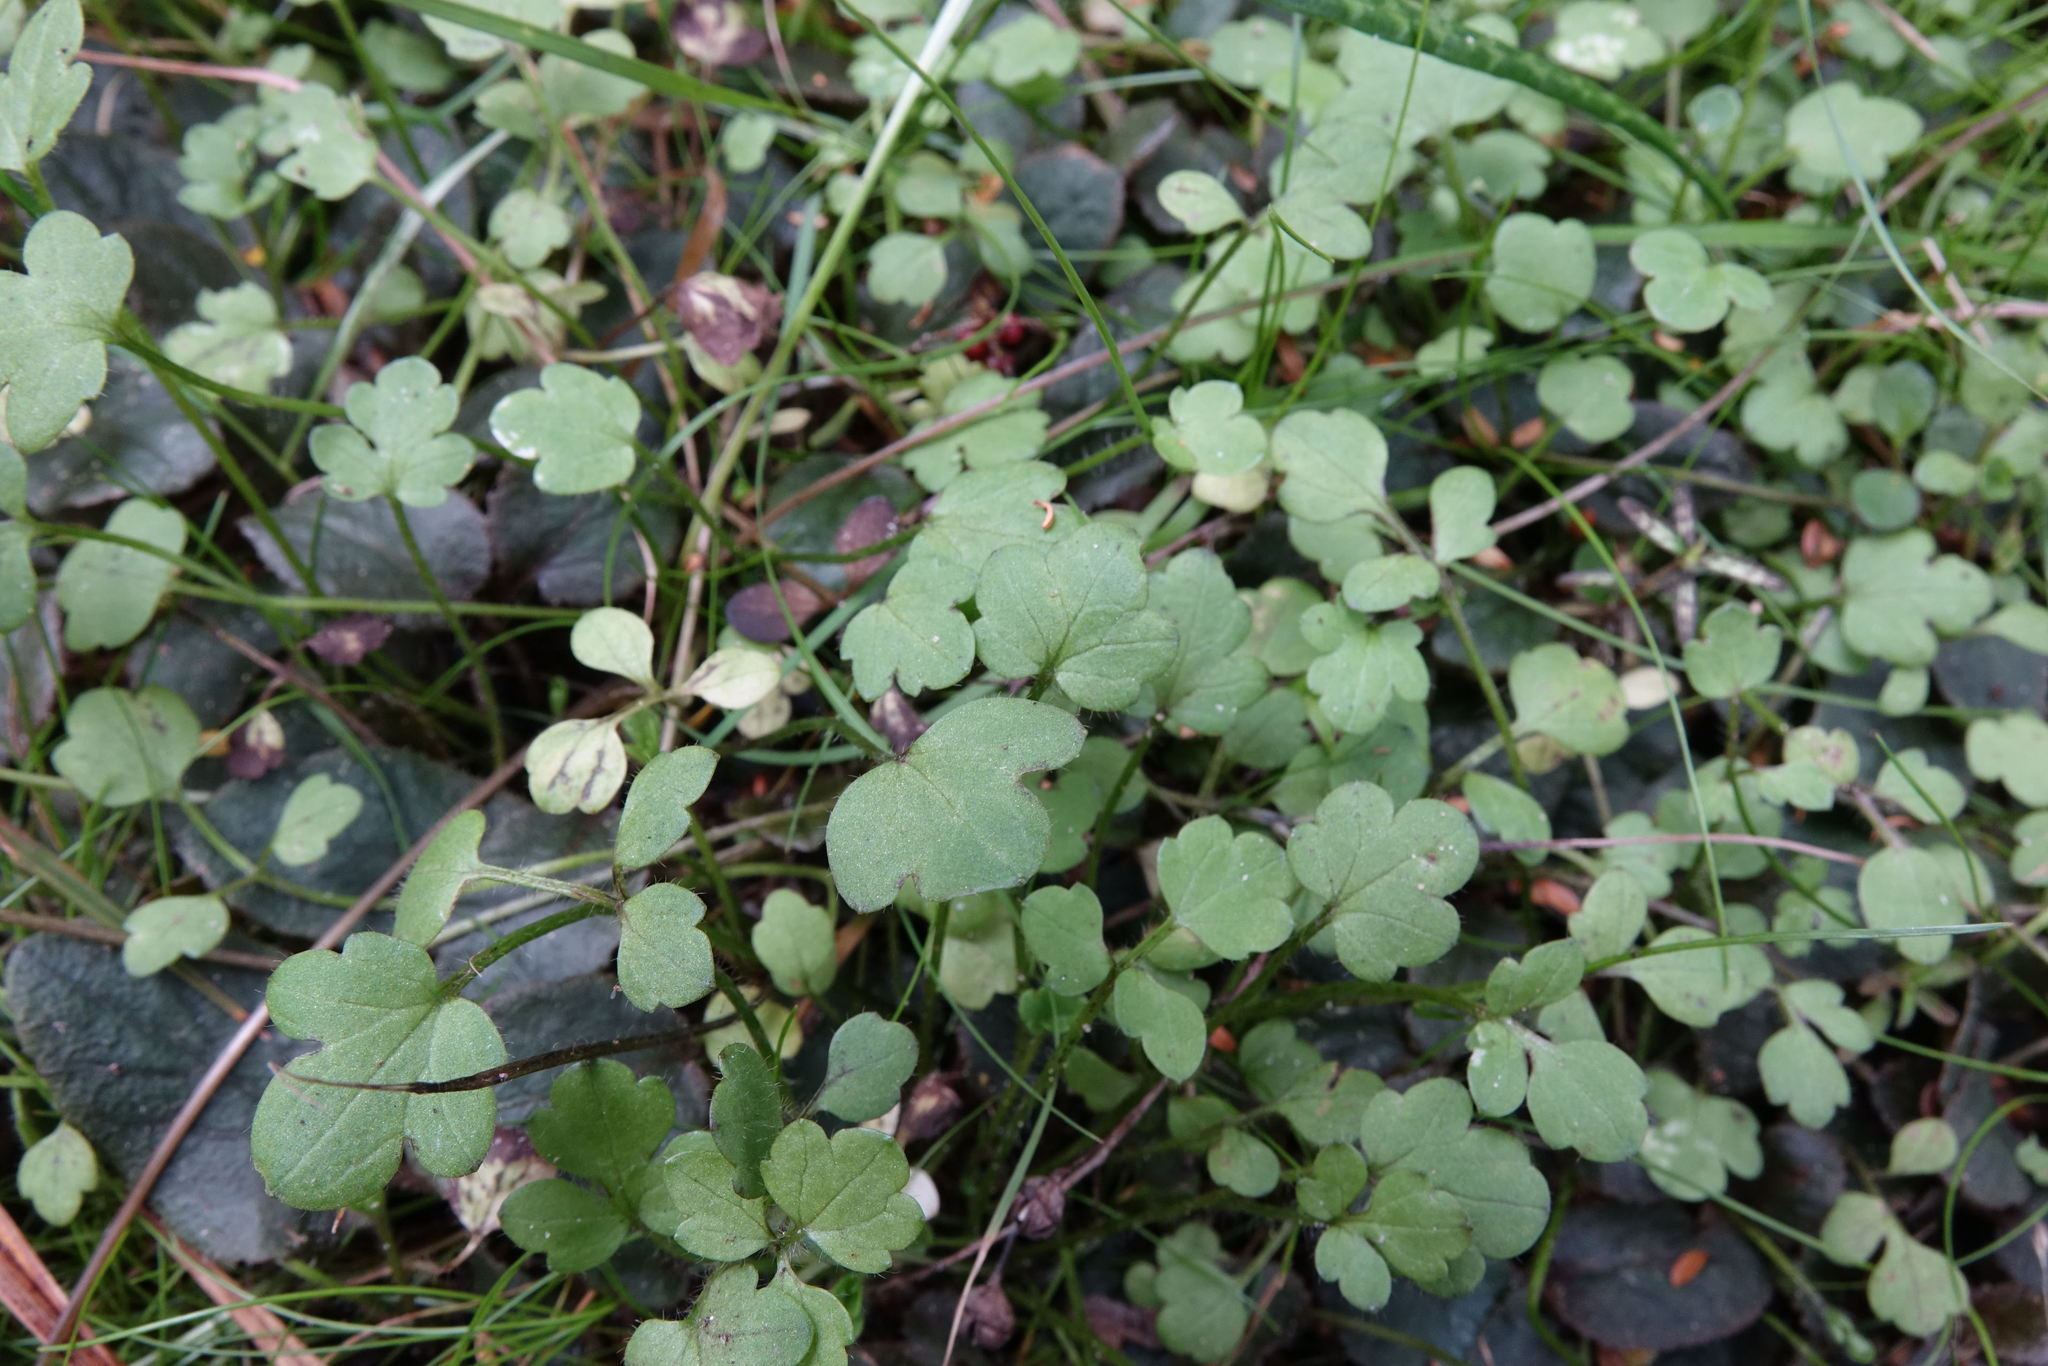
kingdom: Plantae
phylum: Tracheophyta
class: Magnoliopsida
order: Ranunculales
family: Ranunculaceae
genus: Ranunculus
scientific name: Ranunculus kirkii
